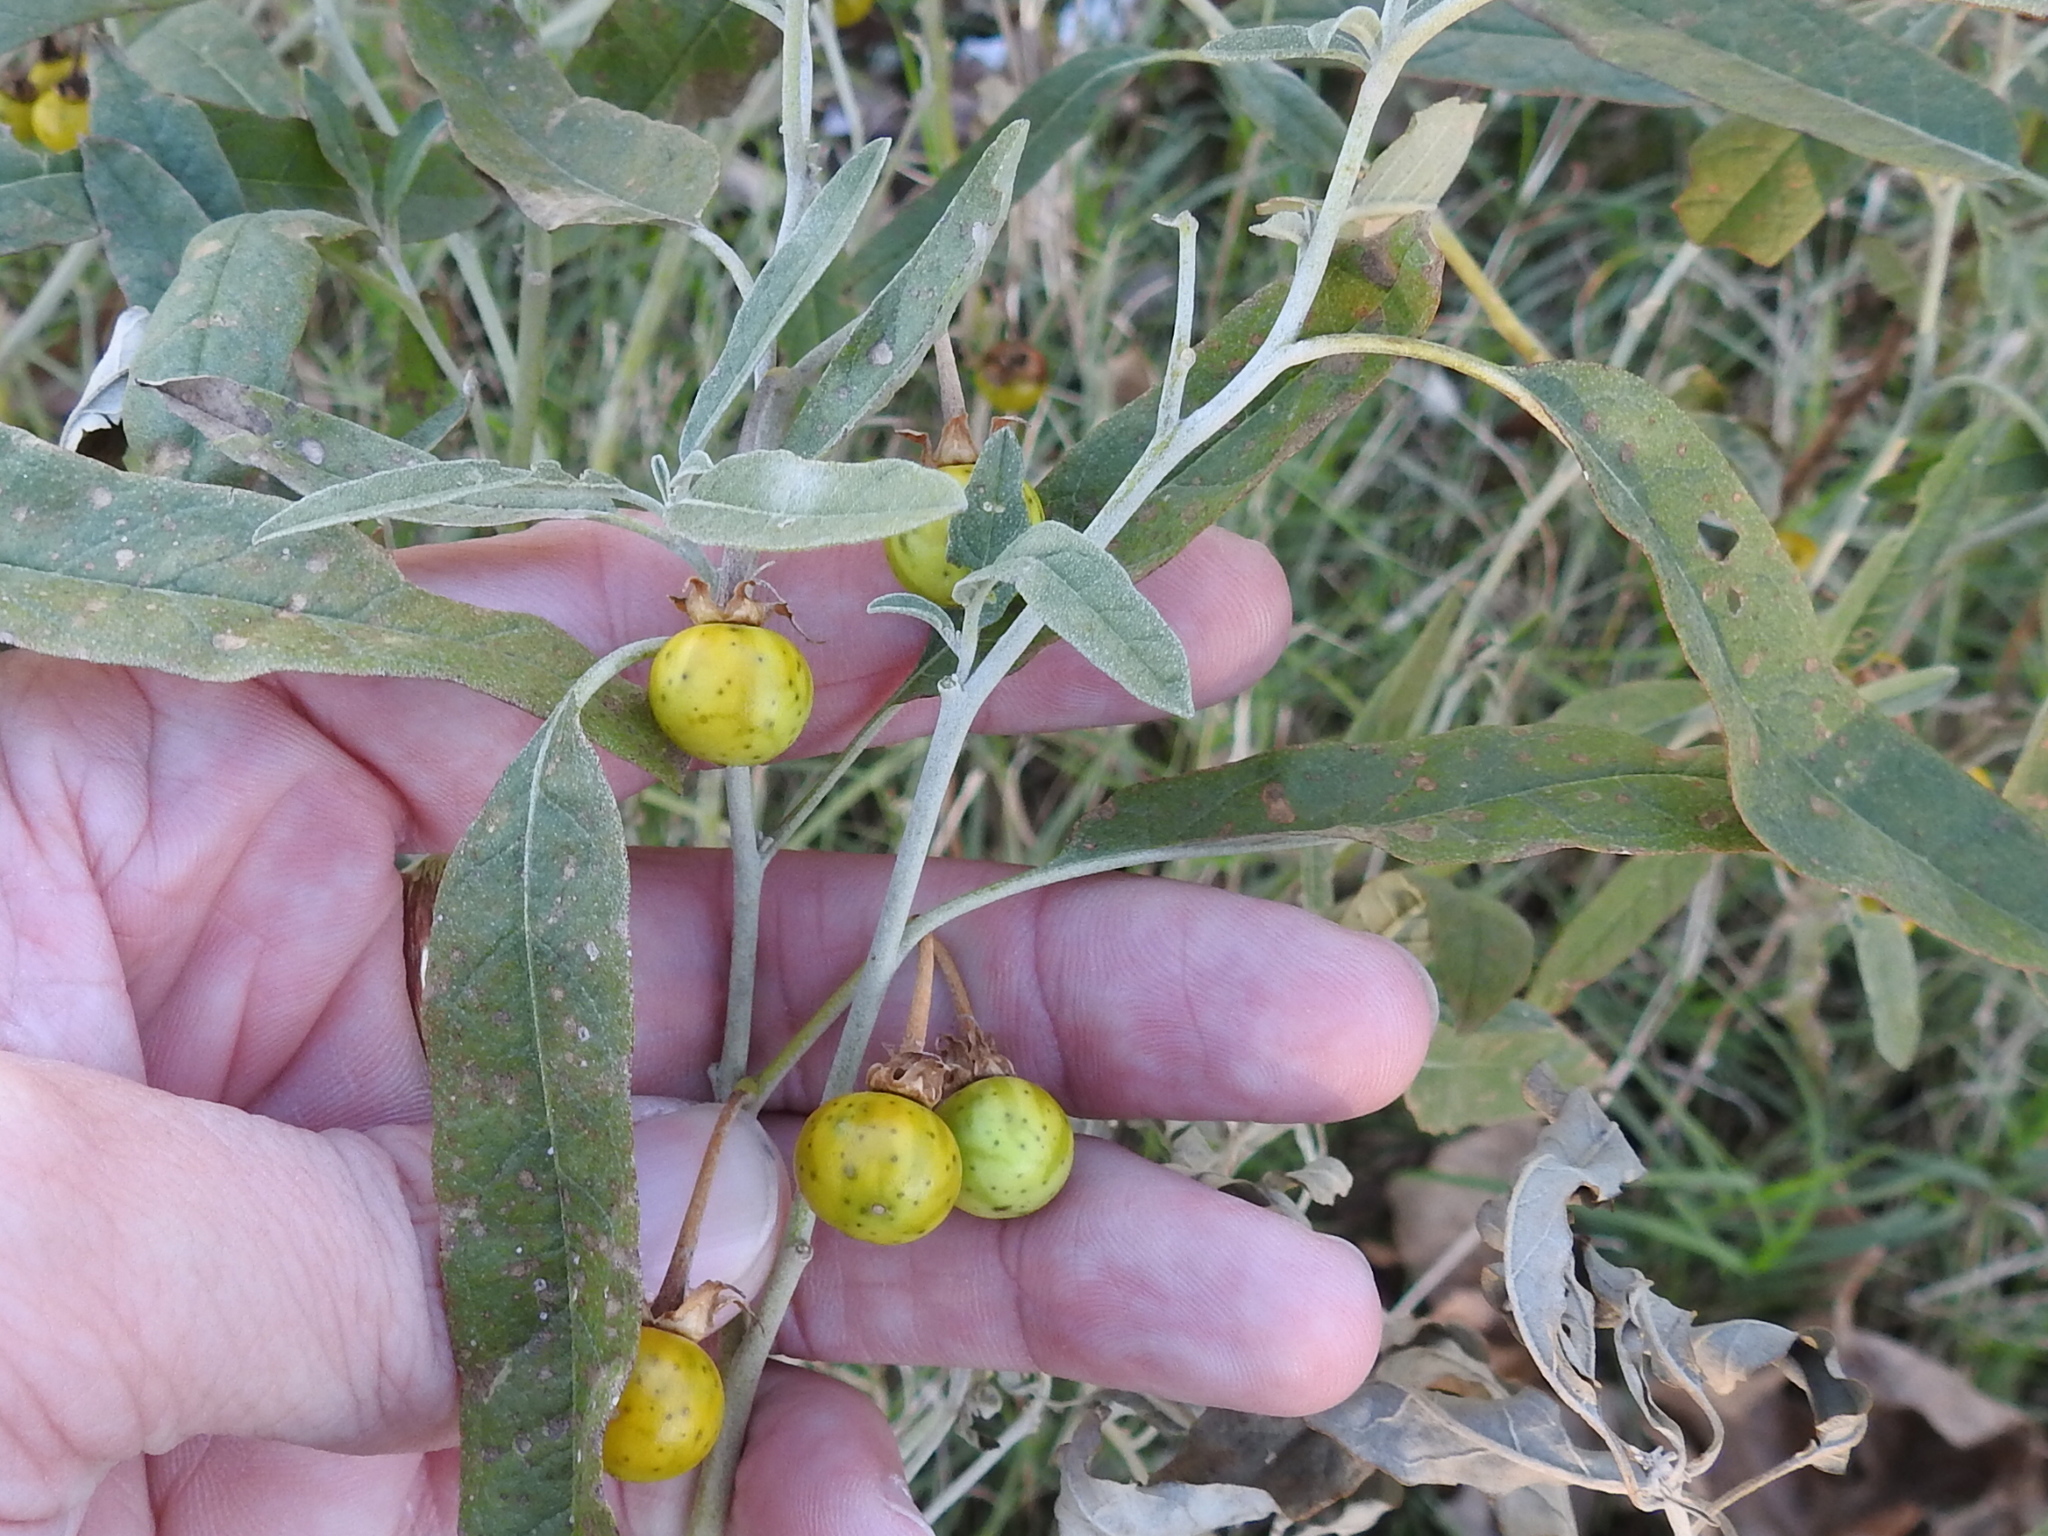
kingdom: Plantae
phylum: Tracheophyta
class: Magnoliopsida
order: Solanales
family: Solanaceae
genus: Solanum
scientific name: Solanum elaeagnifolium
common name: Silverleaf nightshade
